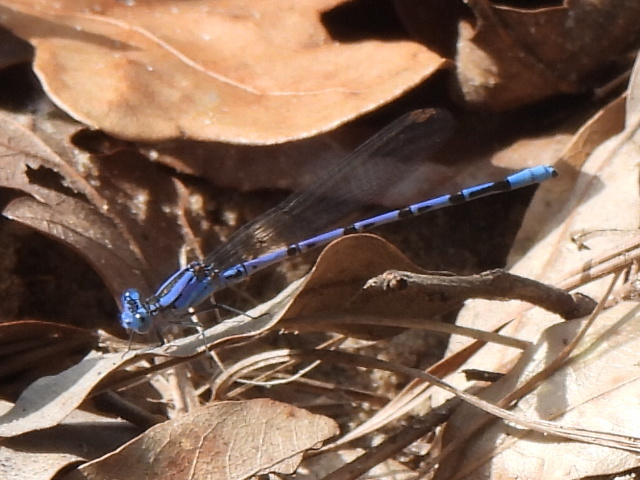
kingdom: Animalia
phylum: Arthropoda
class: Insecta
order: Odonata
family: Coenagrionidae
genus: Argia
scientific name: Argia funebris
